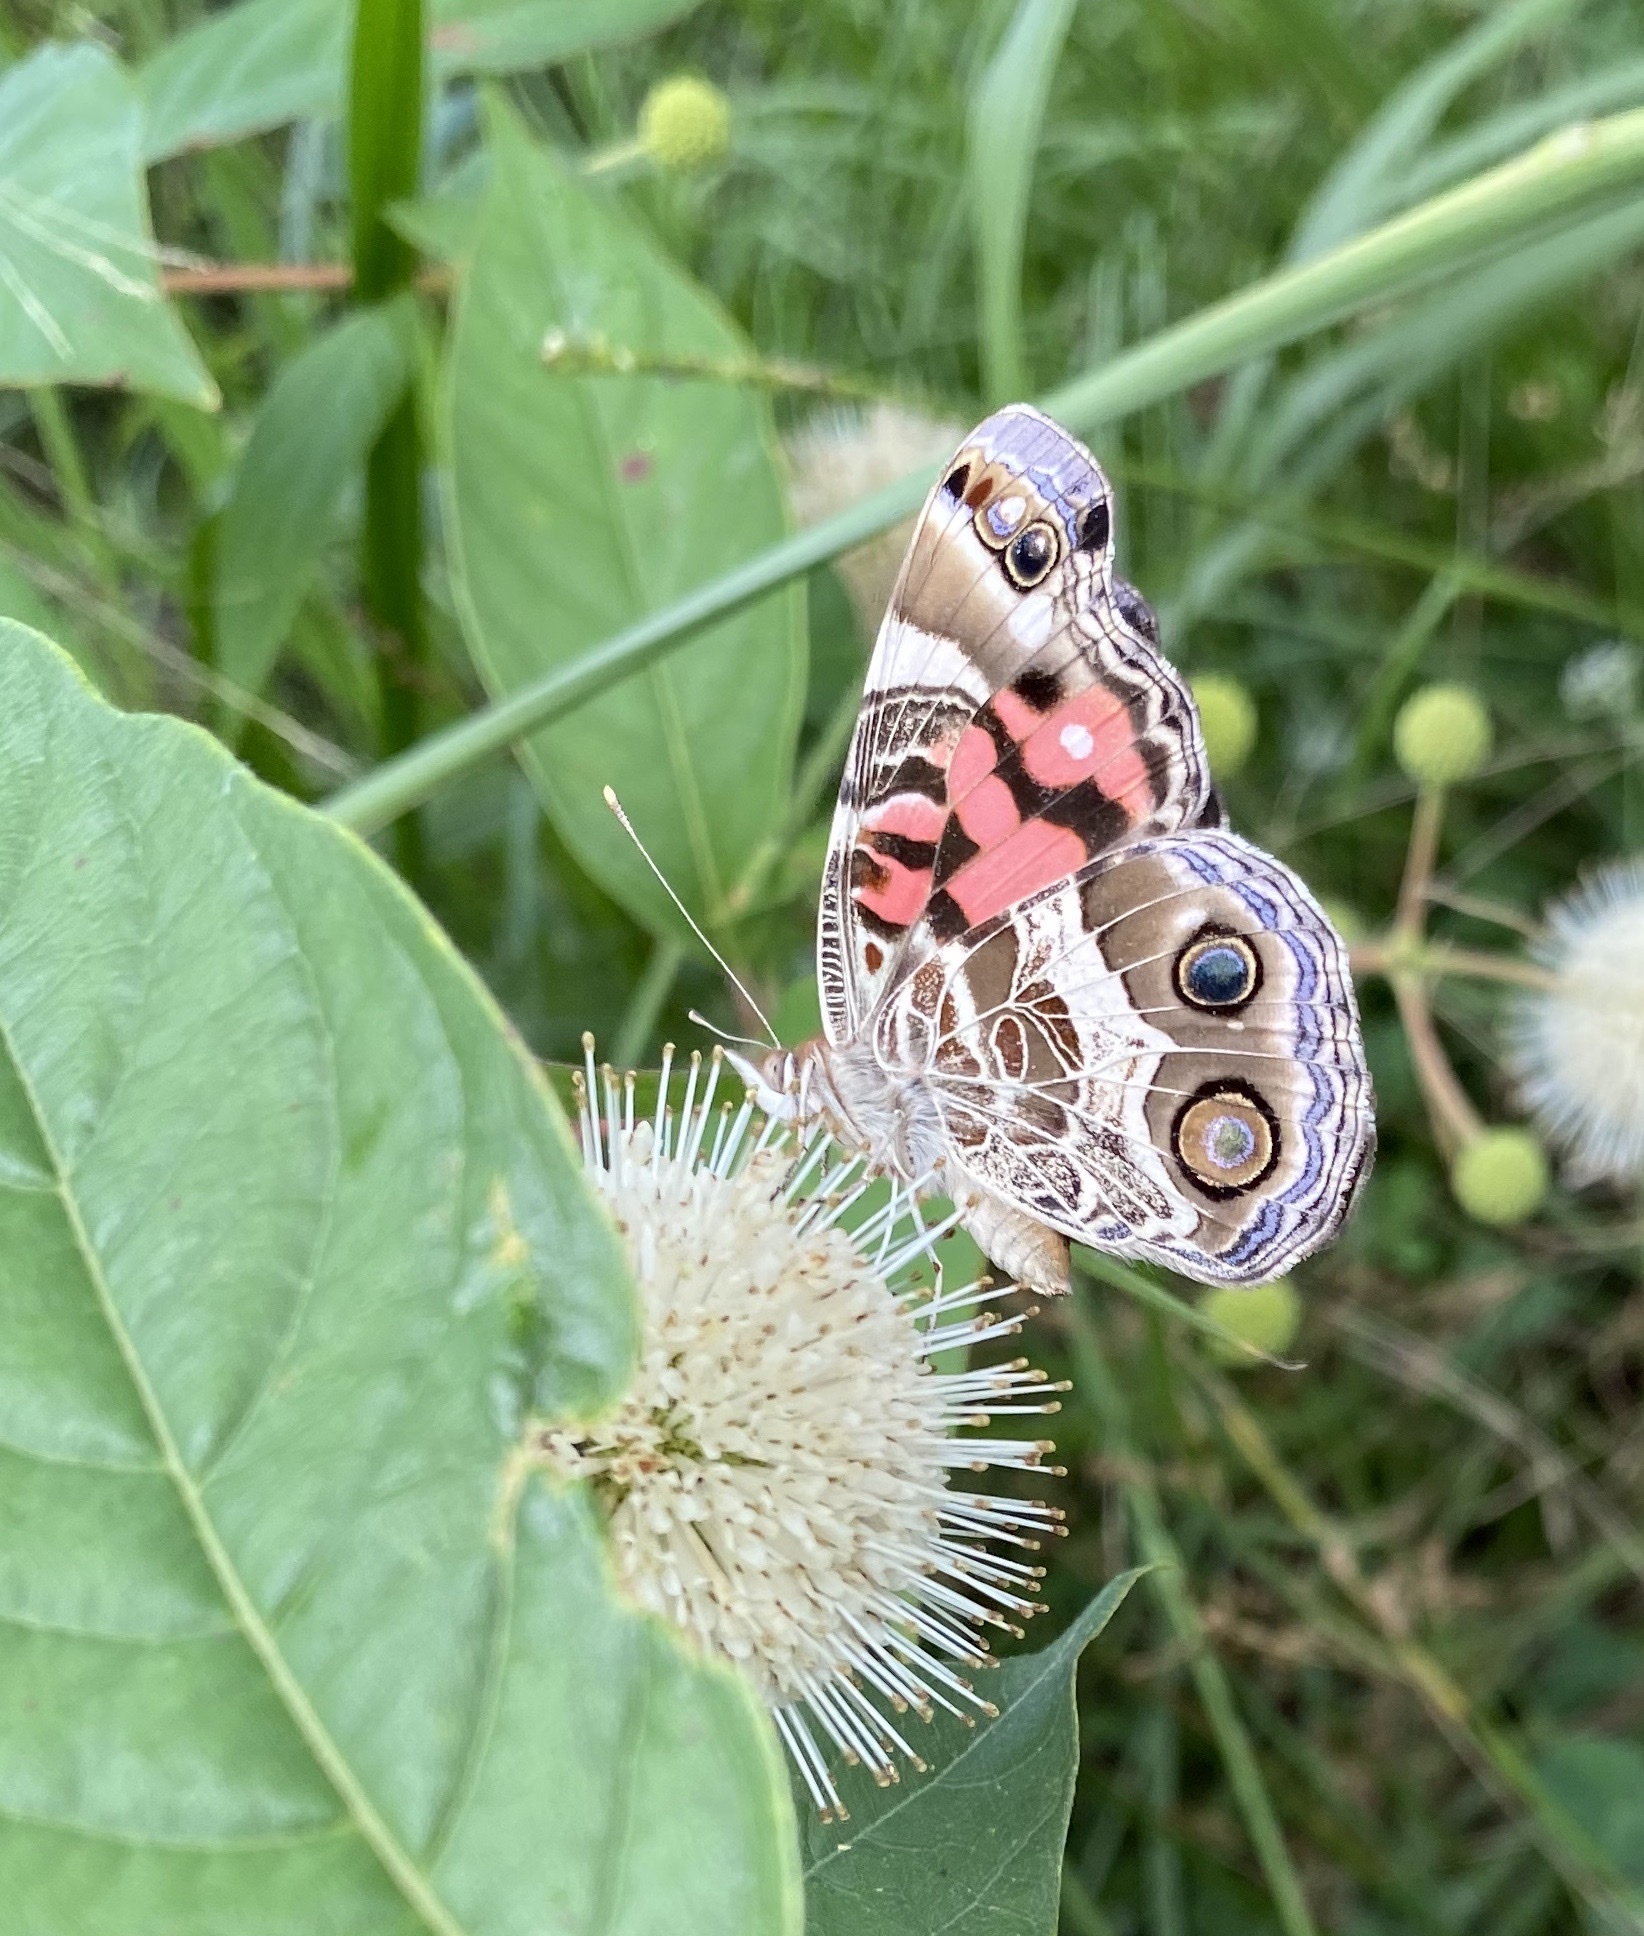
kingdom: Animalia
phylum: Arthropoda
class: Insecta
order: Lepidoptera
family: Nymphalidae
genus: Vanessa
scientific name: Vanessa virginiensis
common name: American lady
